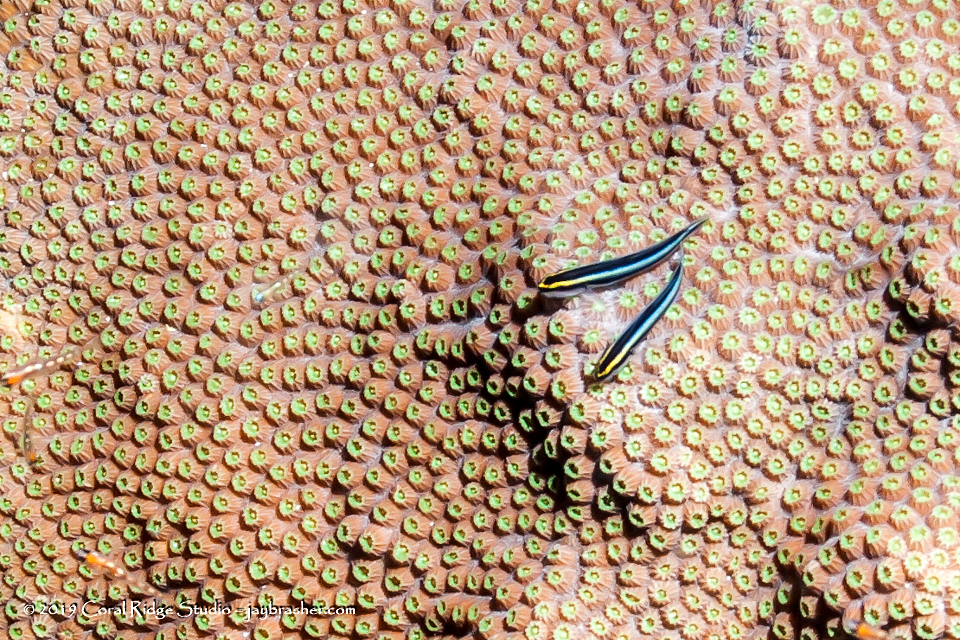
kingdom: Animalia
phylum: Chordata
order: Perciformes
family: Gobiidae
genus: Elacatinus
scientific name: Elacatinus evelynae
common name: Sharknose goby
